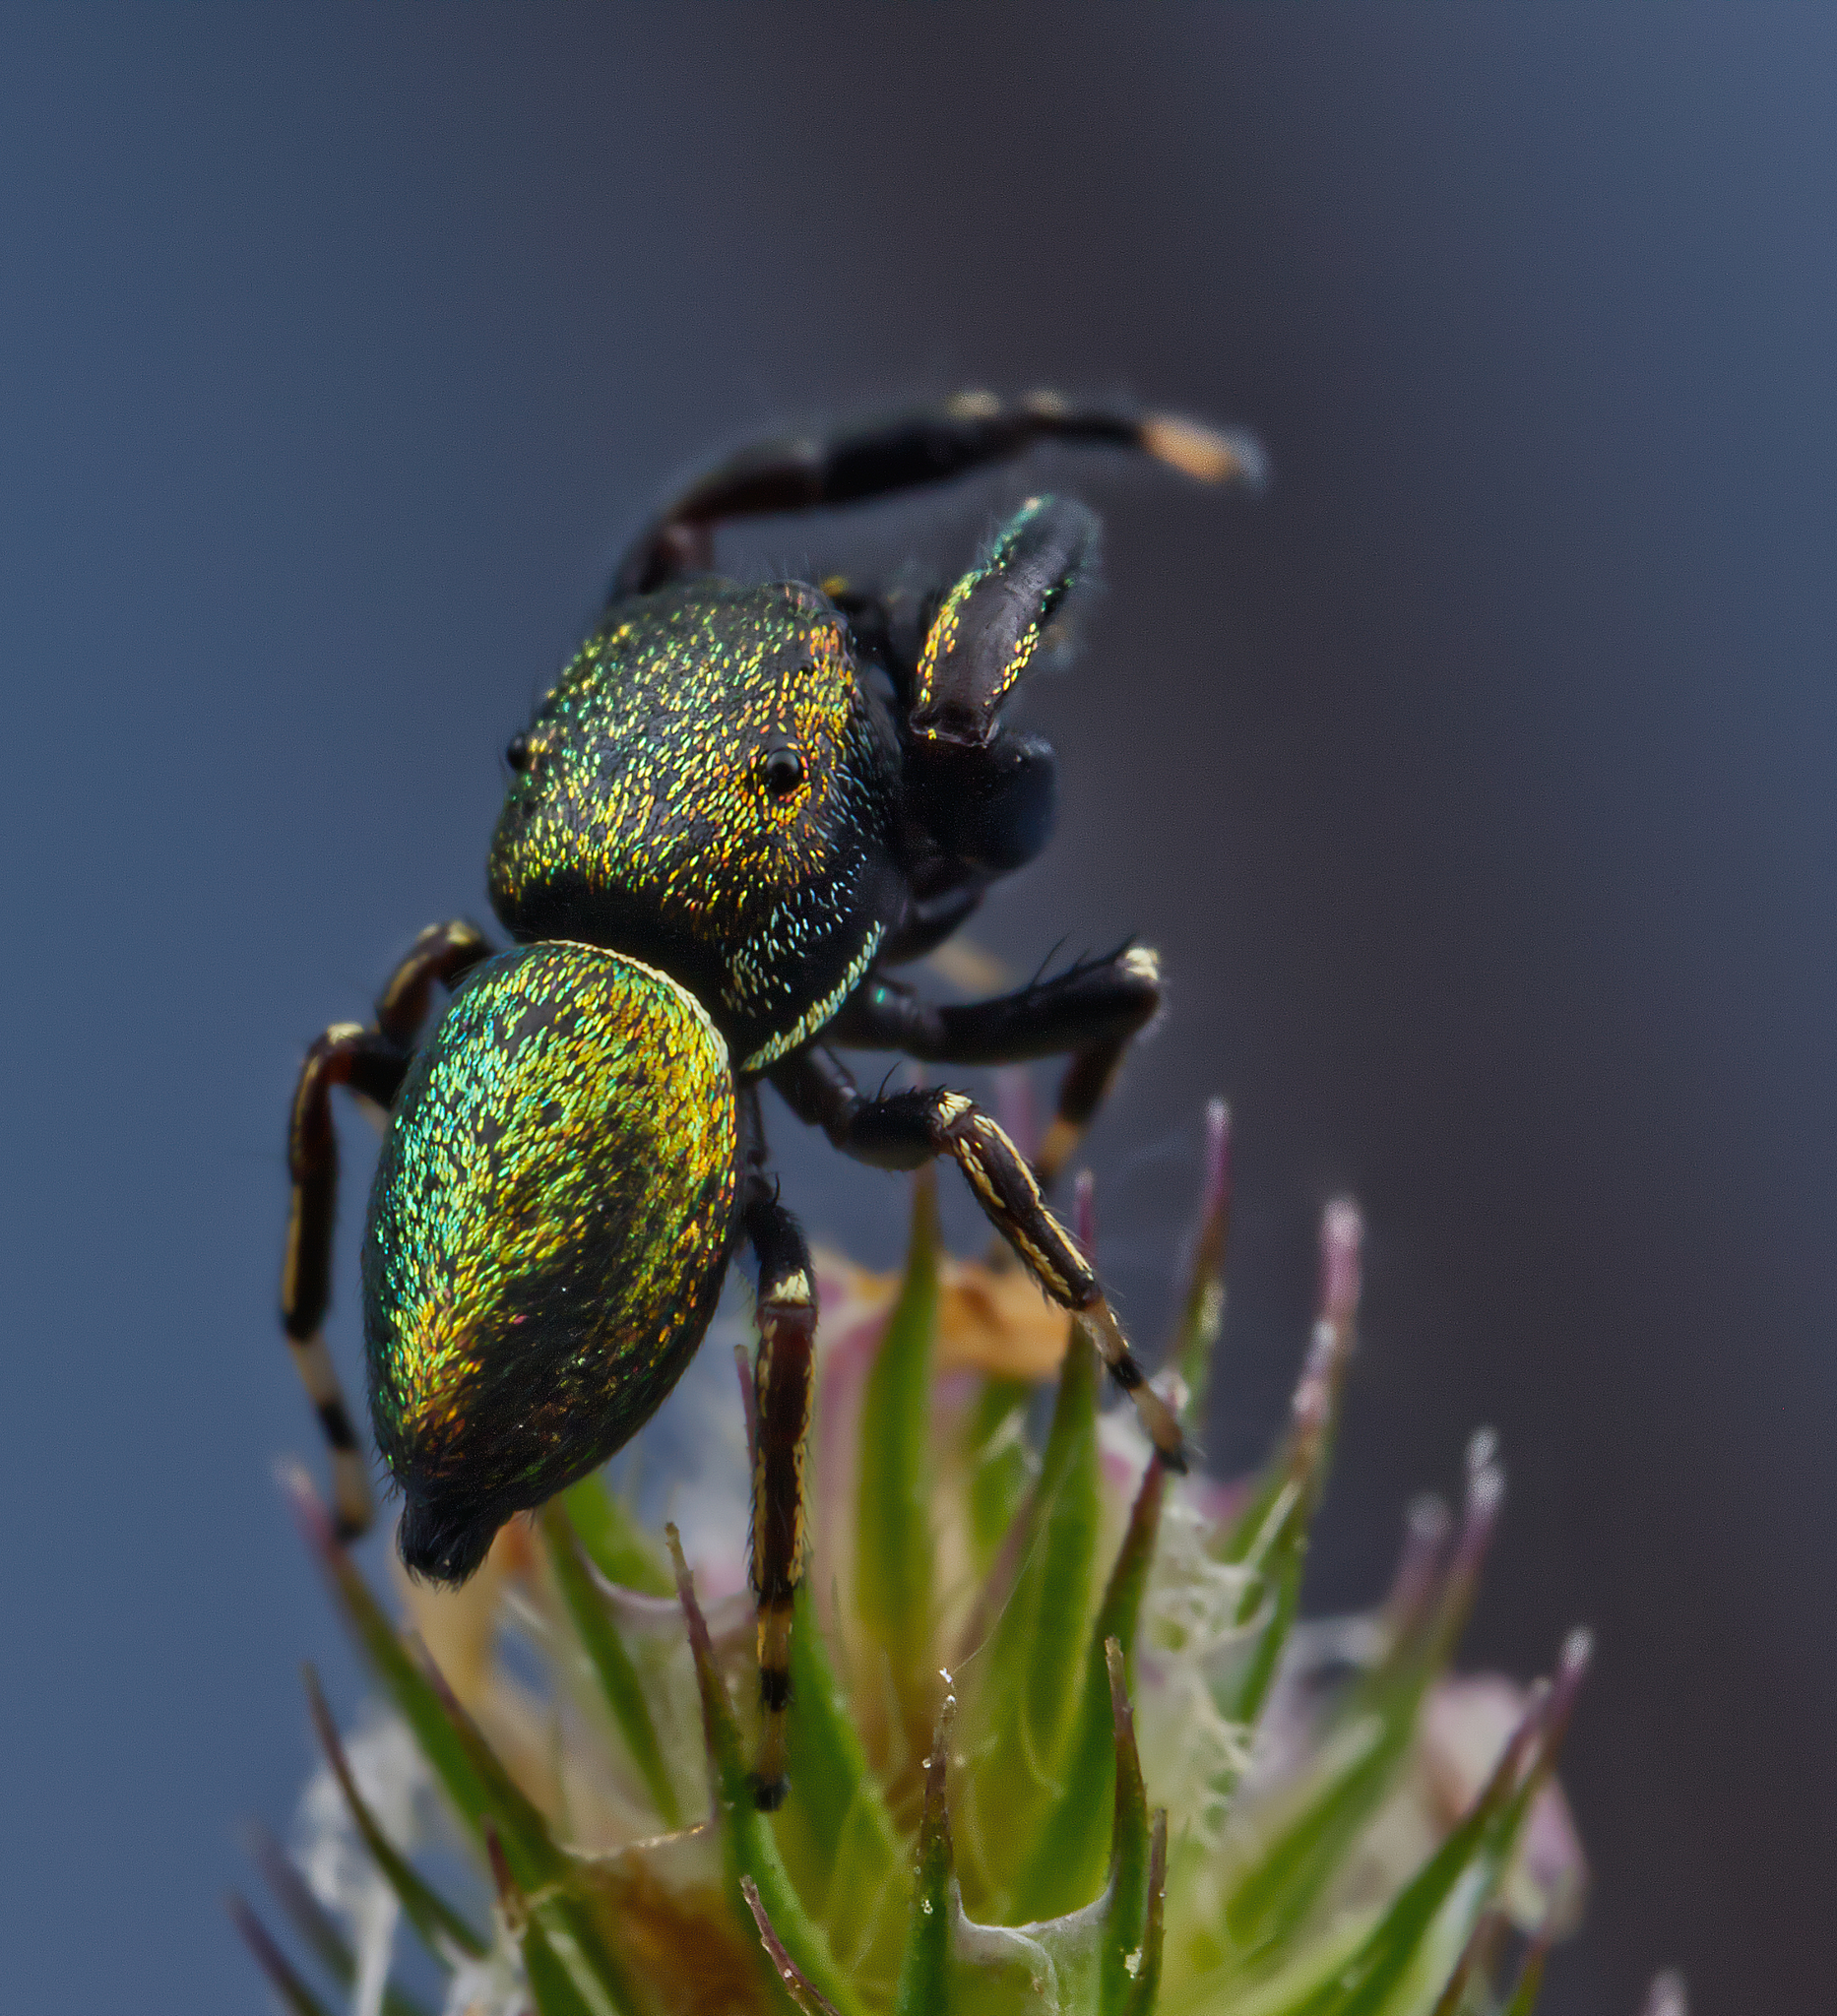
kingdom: Animalia
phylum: Arthropoda
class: Arachnida
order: Araneae
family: Salticidae
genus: Sassacus
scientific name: Sassacus papenhoei
